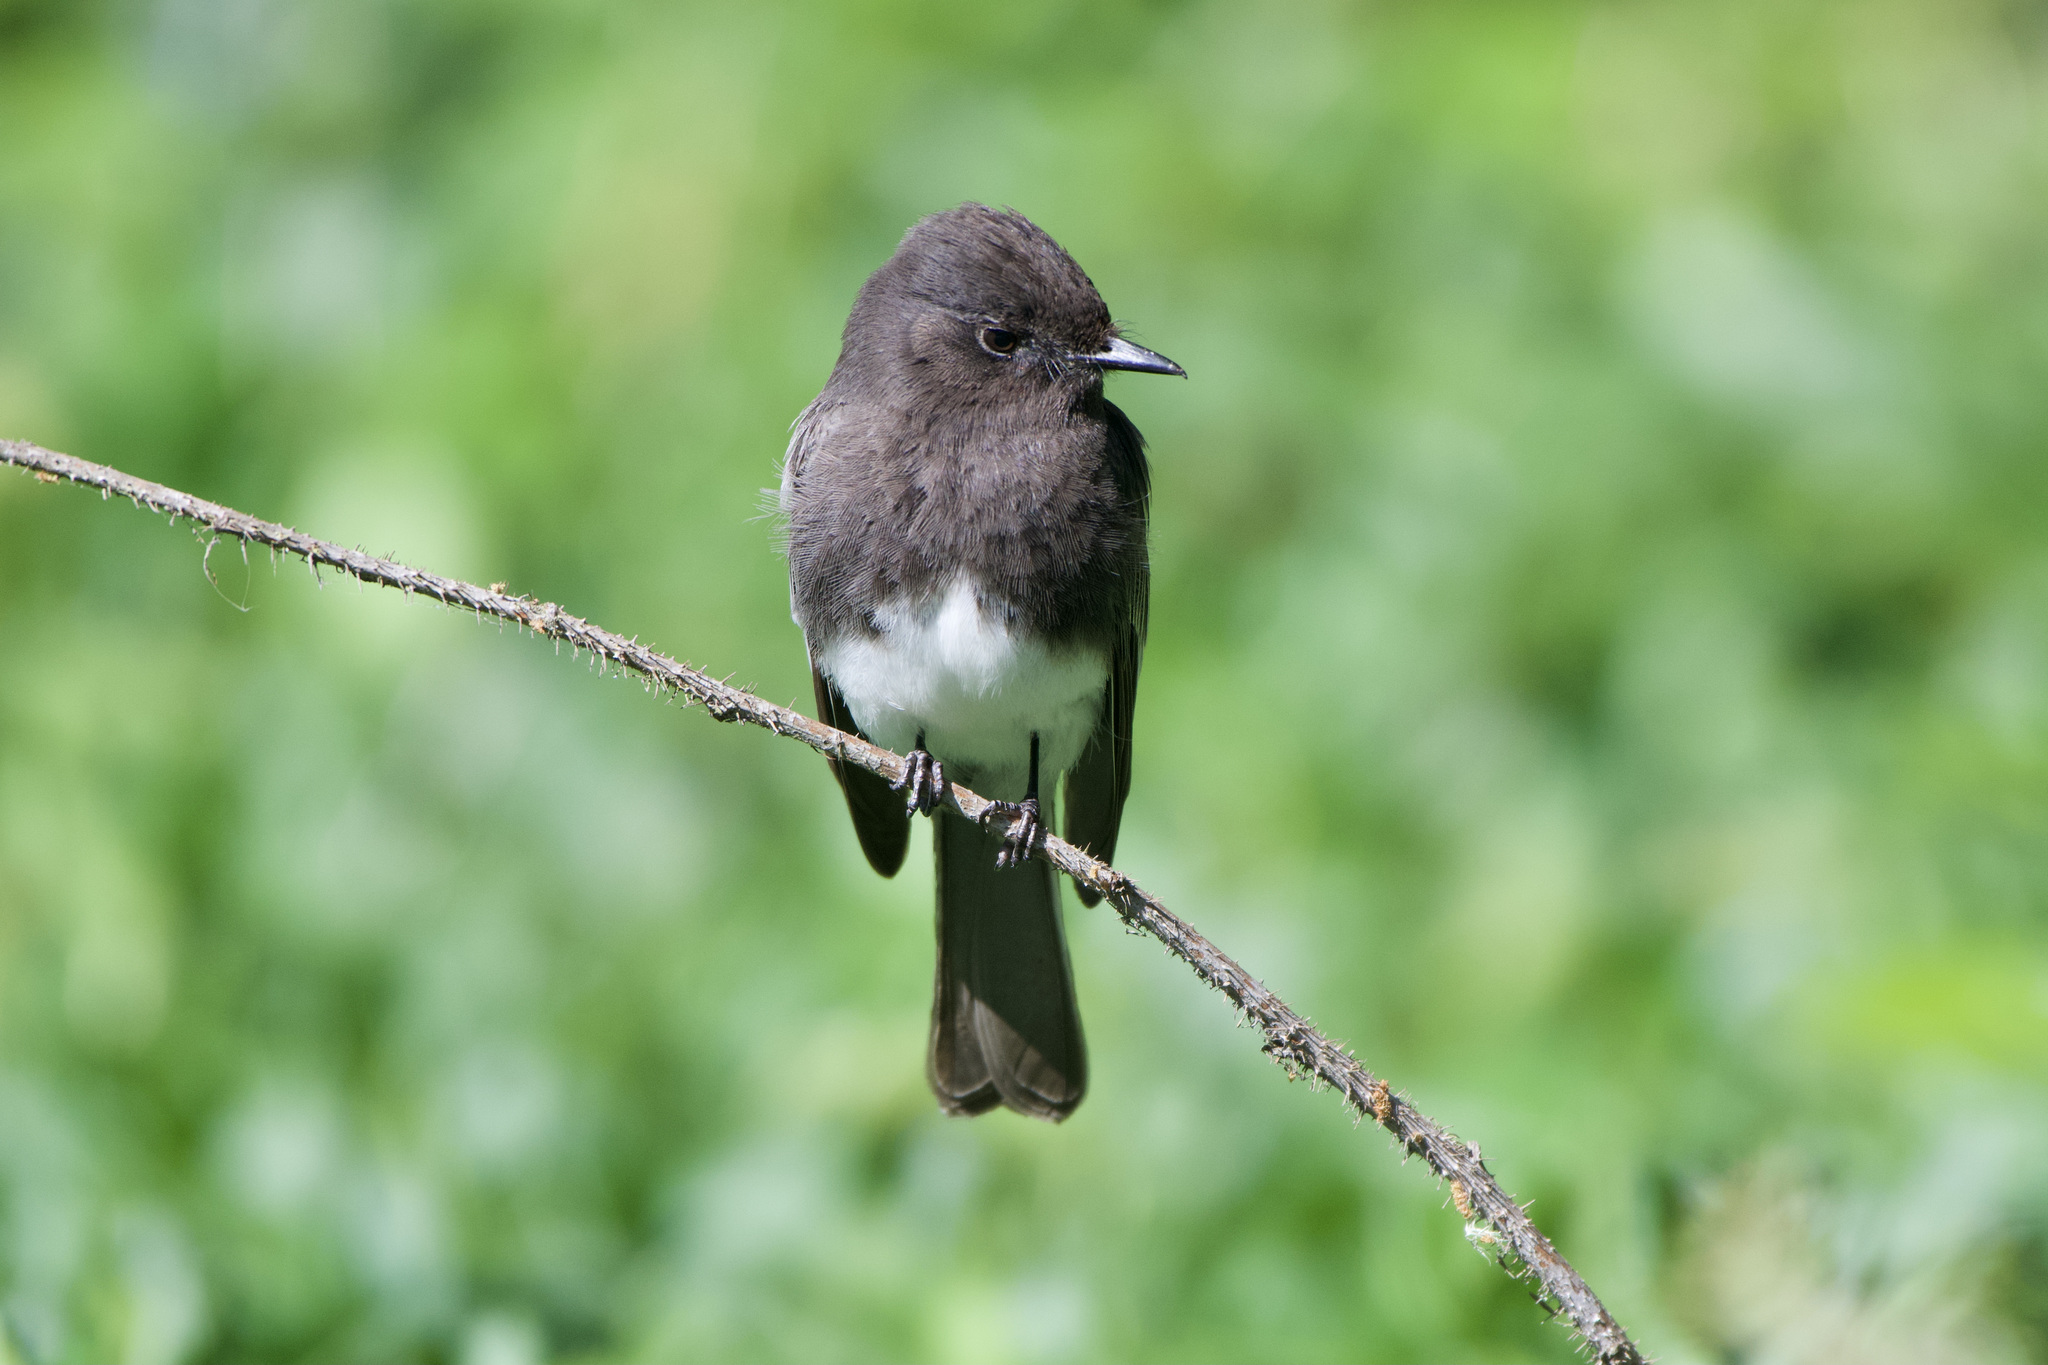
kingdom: Animalia
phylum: Chordata
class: Aves
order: Passeriformes
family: Tyrannidae
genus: Sayornis
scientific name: Sayornis nigricans
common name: Black phoebe
